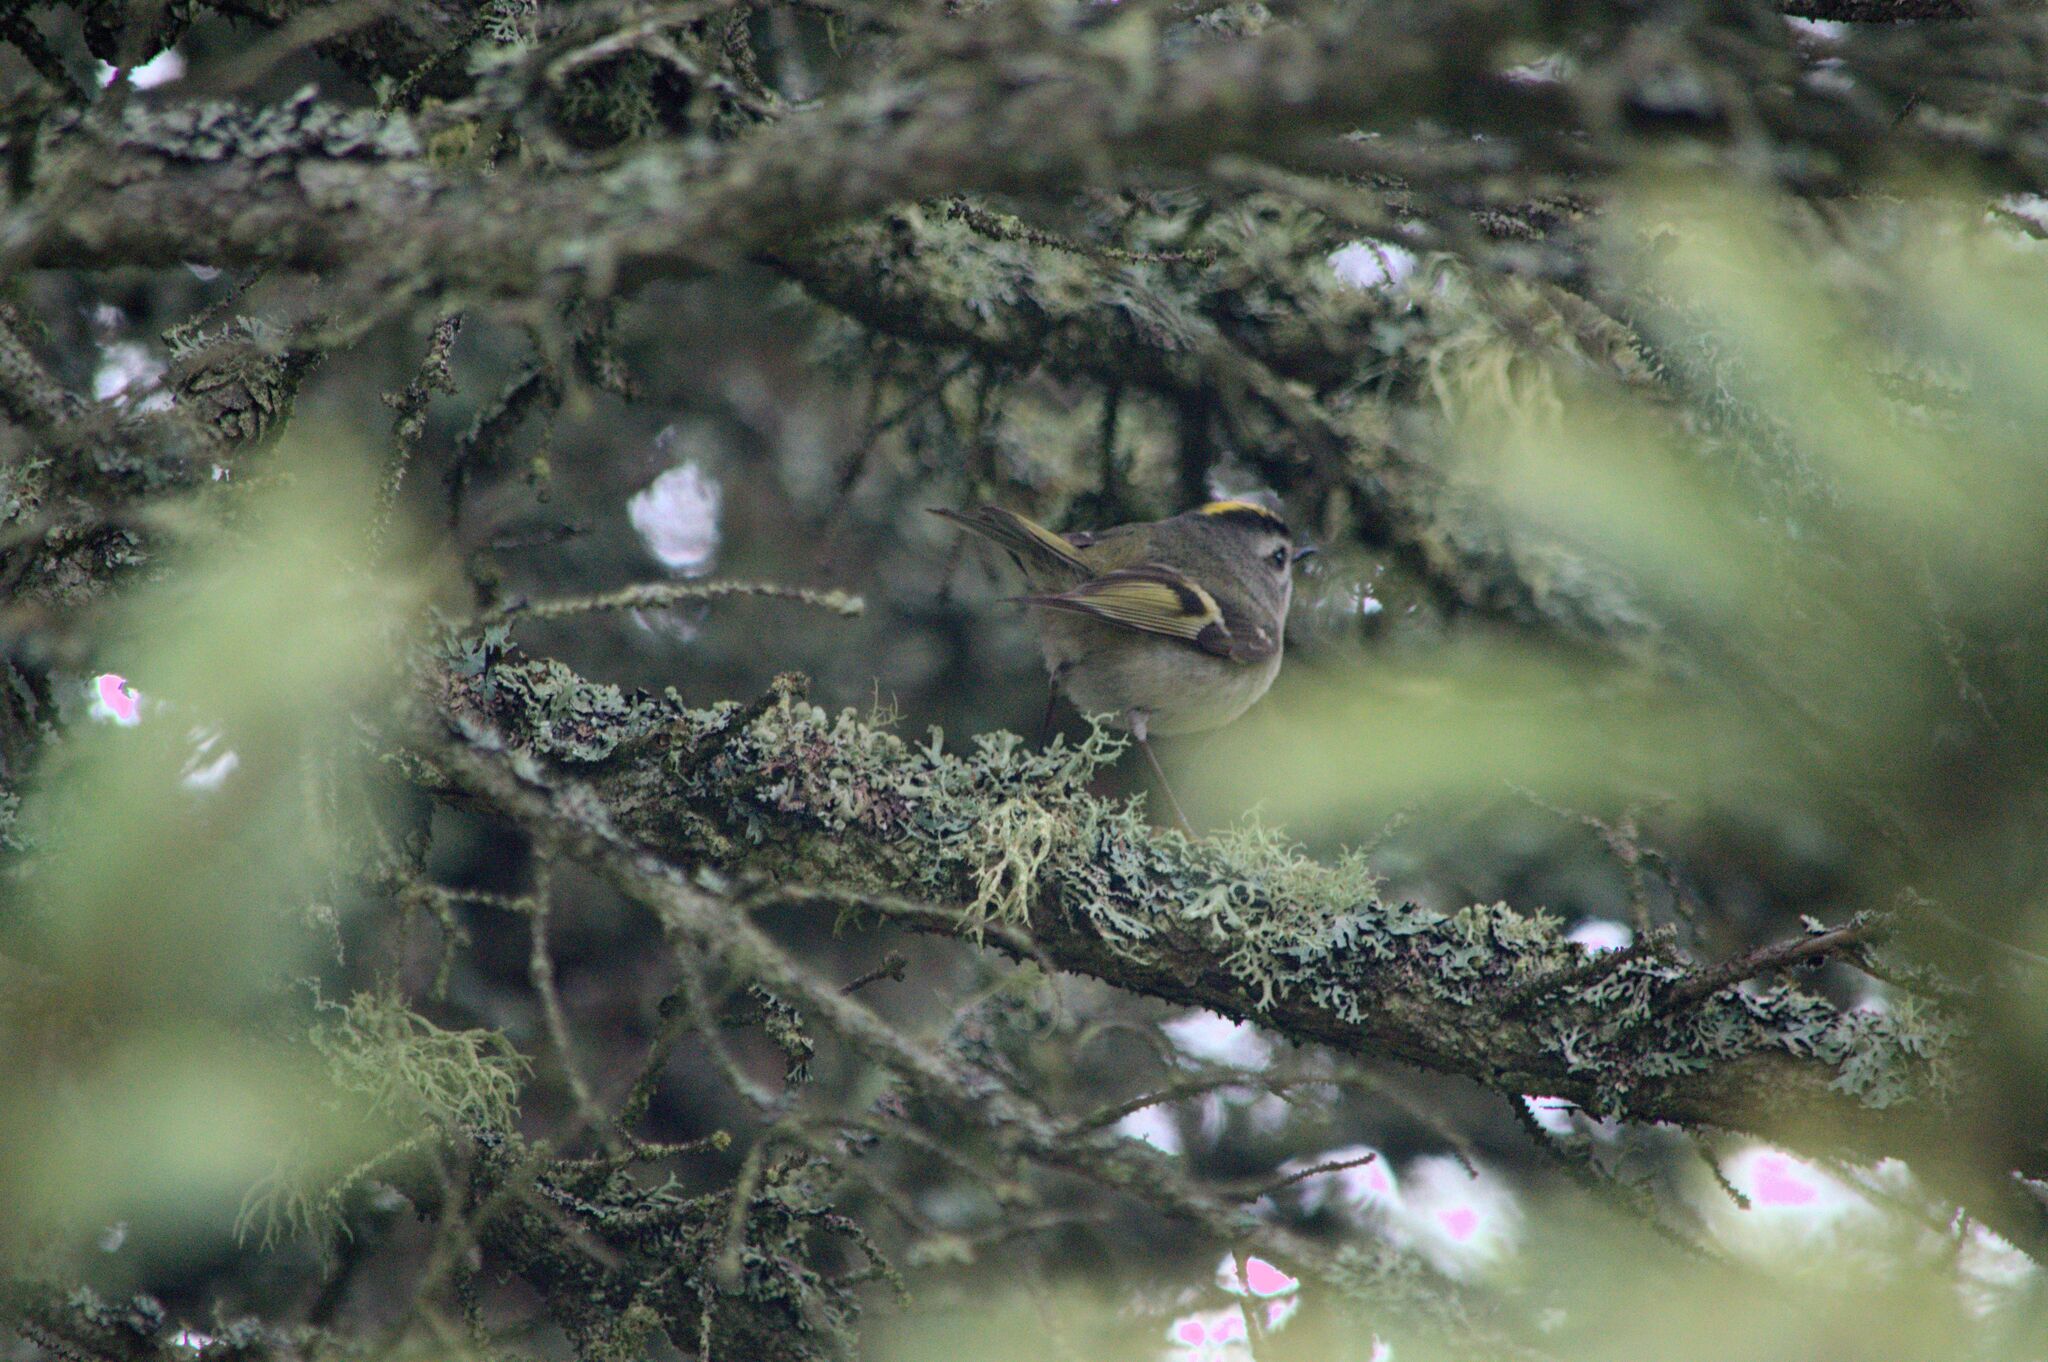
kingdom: Animalia
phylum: Chordata
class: Aves
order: Passeriformes
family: Regulidae
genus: Regulus
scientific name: Regulus satrapa
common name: Golden-crowned kinglet
